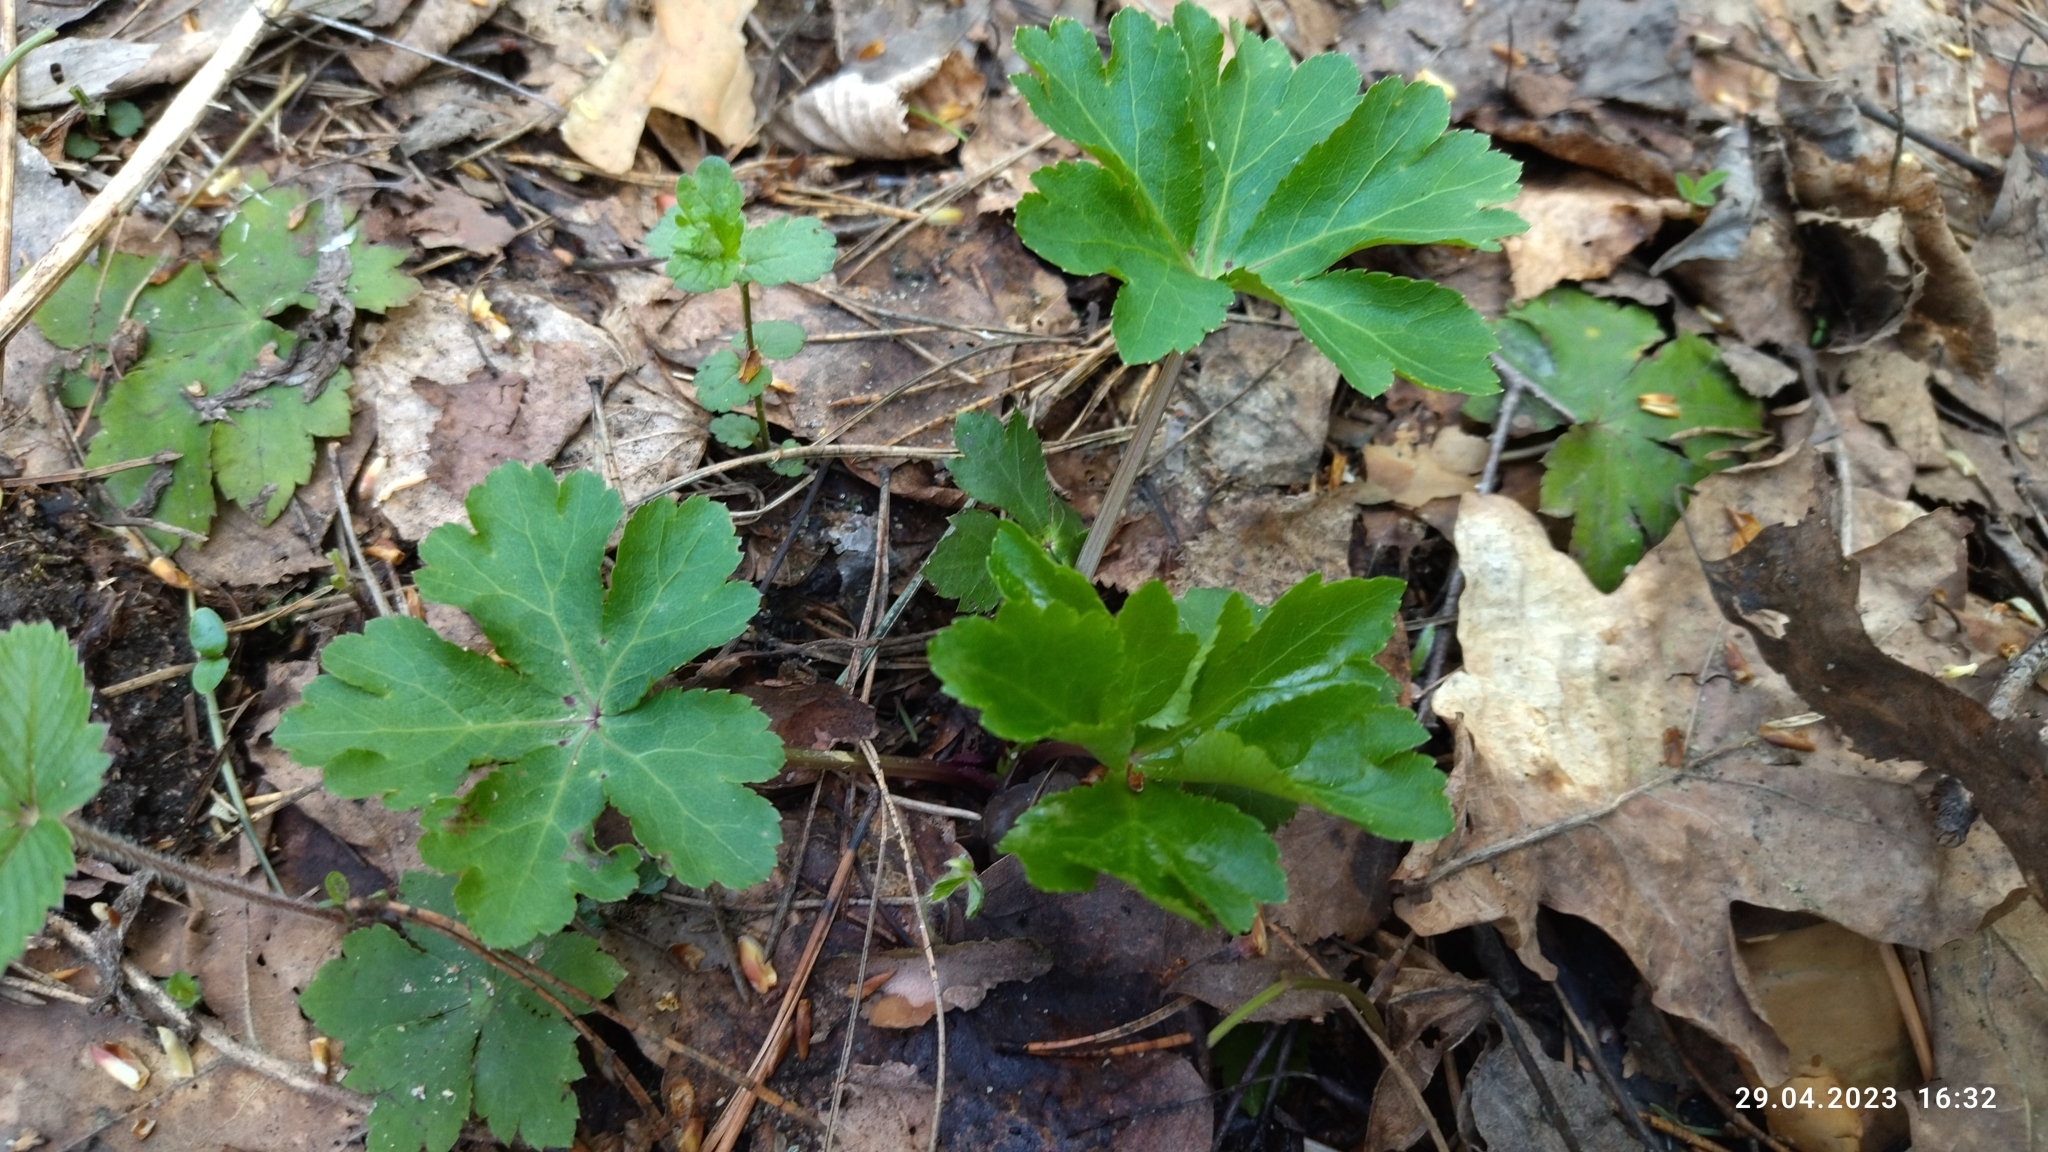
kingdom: Plantae
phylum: Tracheophyta
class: Magnoliopsida
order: Apiales
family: Apiaceae
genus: Sanicula
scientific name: Sanicula europaea
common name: Sanicle
